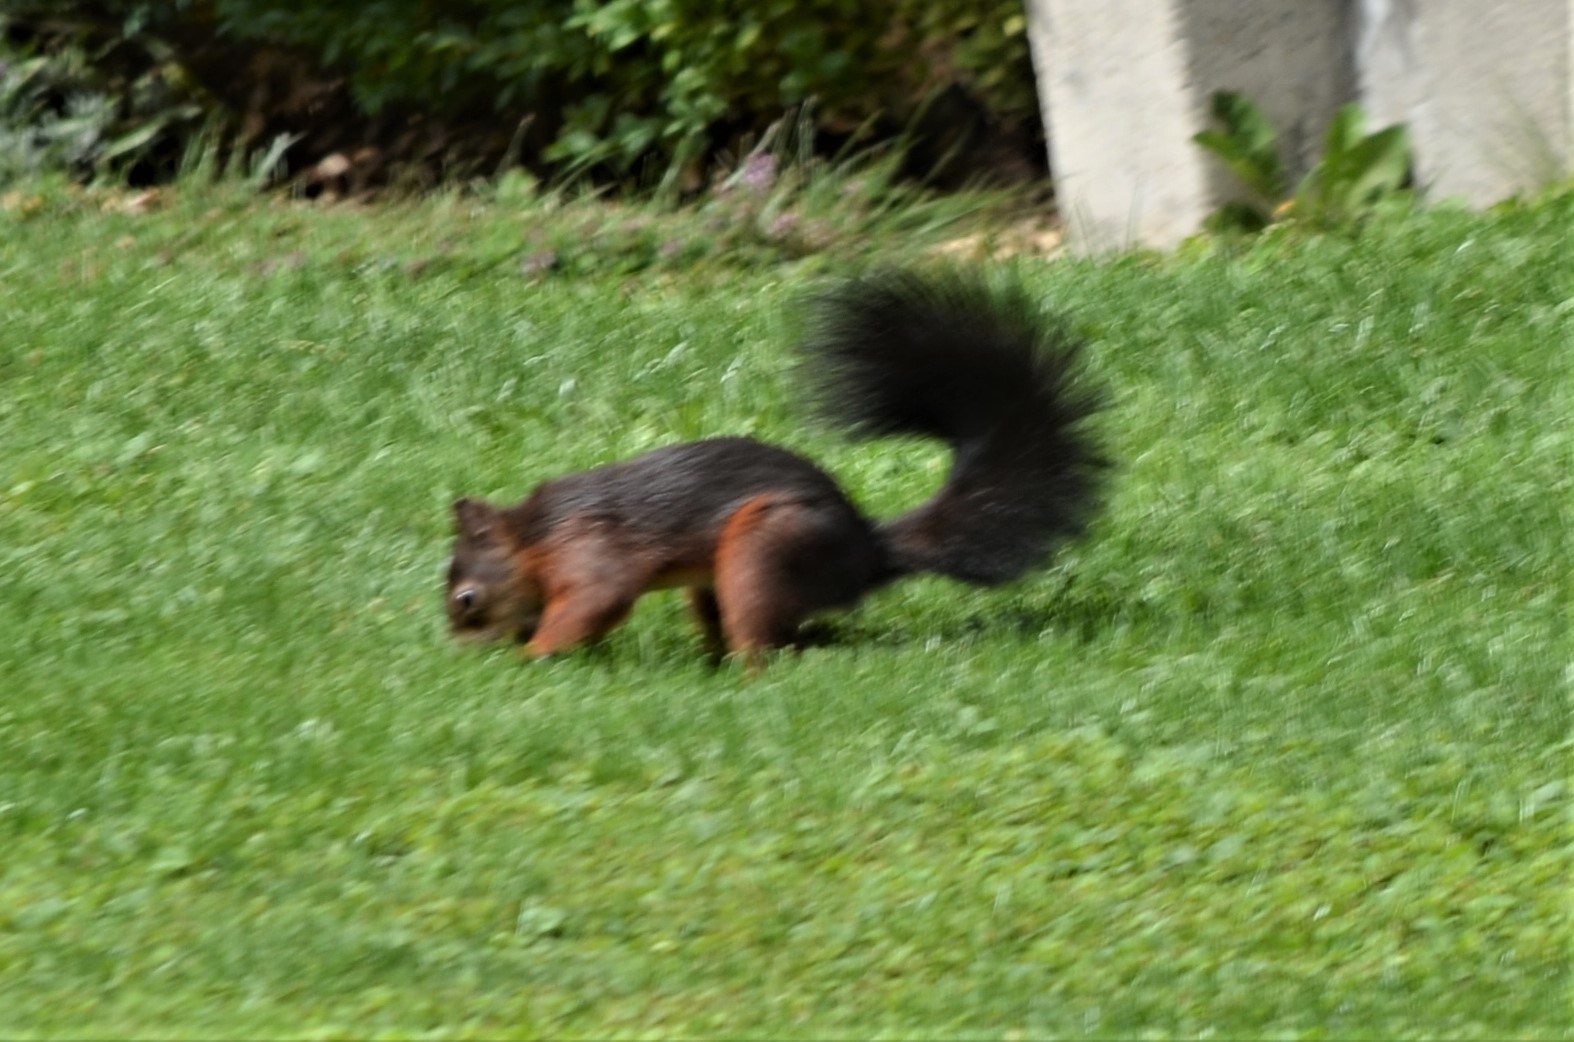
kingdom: Animalia
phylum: Chordata
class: Mammalia
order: Rodentia
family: Sciuridae
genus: Sciurus
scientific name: Sciurus vulgaris
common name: Eurasian red squirrel
